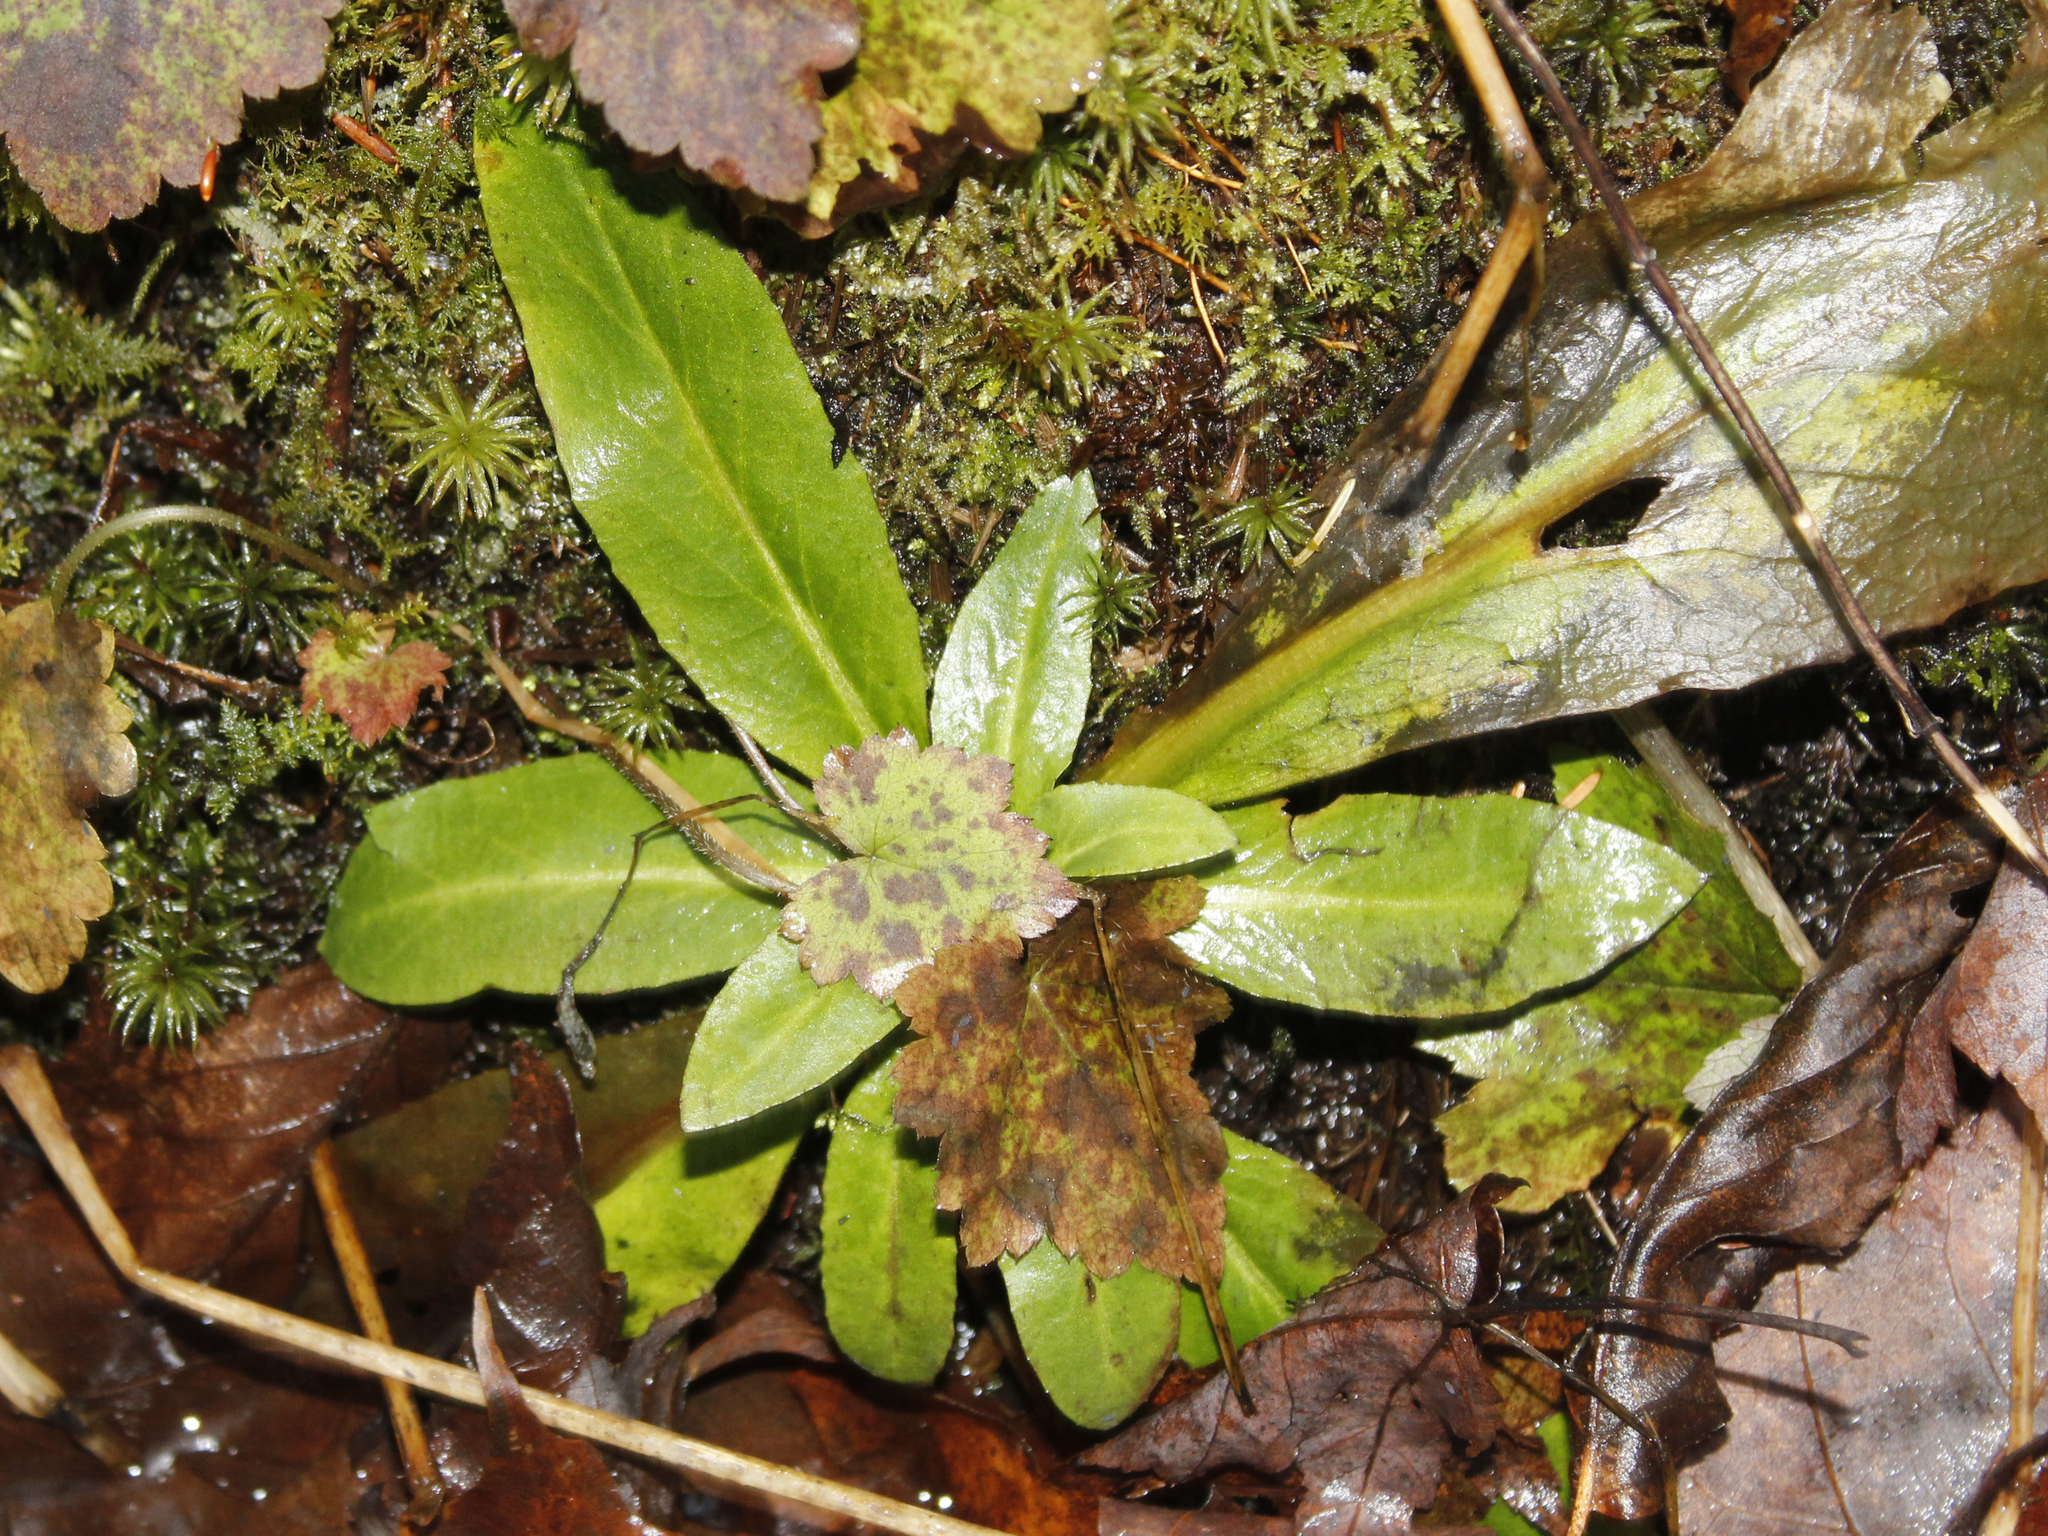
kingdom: Plantae
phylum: Tracheophyta
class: Magnoliopsida
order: Saxifragales
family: Saxifragaceae
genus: Micranthes
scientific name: Micranthes pensylvanica
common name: Marsh saxifrage
